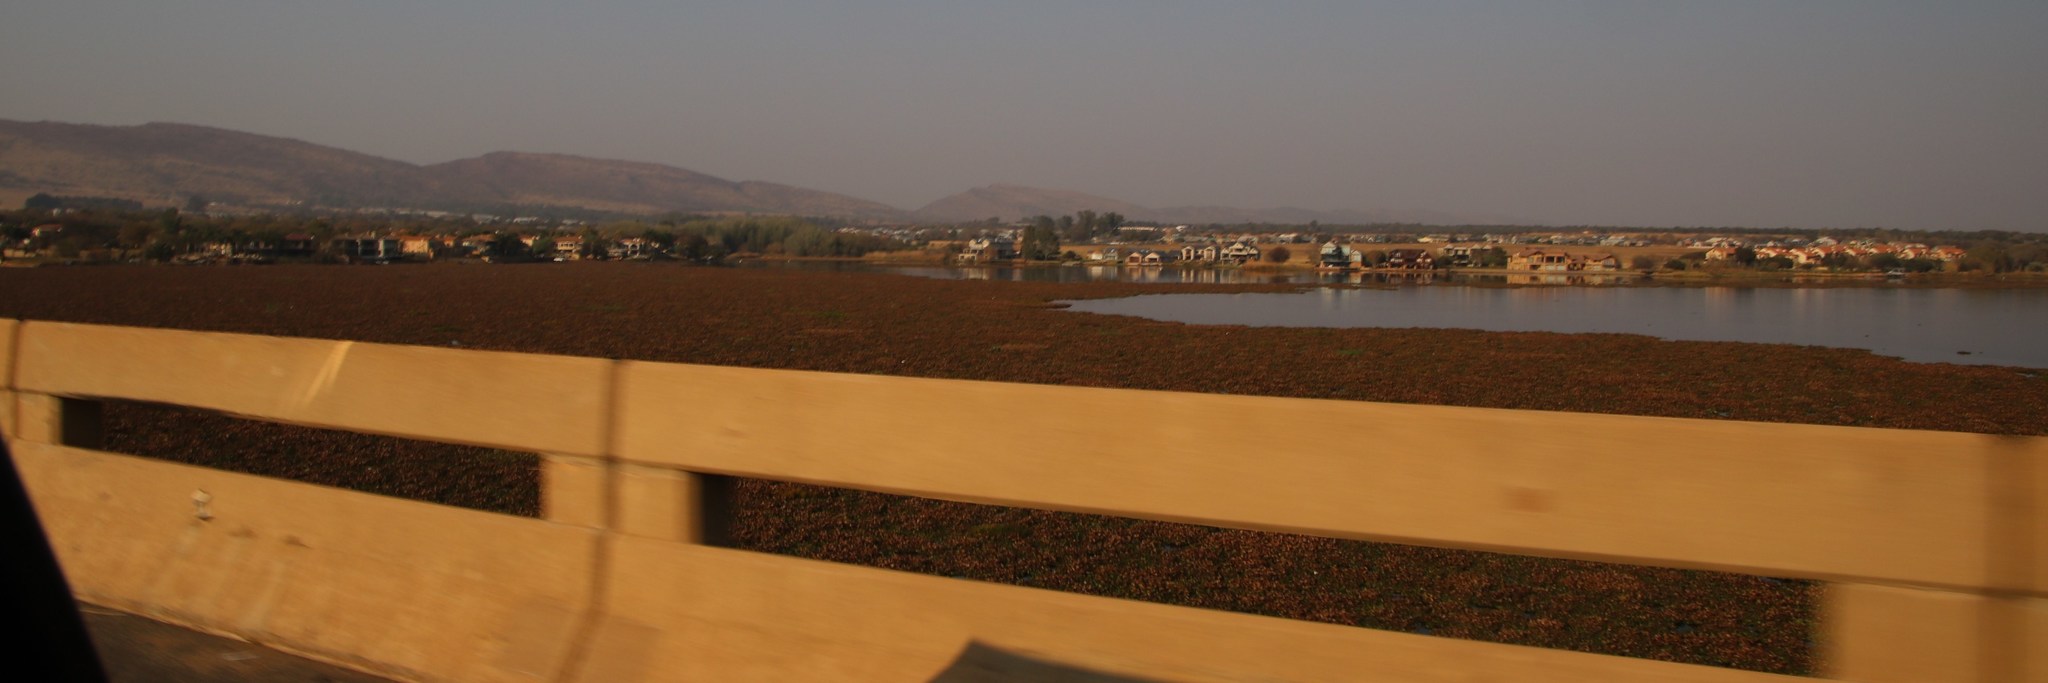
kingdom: Plantae
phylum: Tracheophyta
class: Liliopsida
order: Commelinales
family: Pontederiaceae
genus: Pontederia
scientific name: Pontederia crassipes
